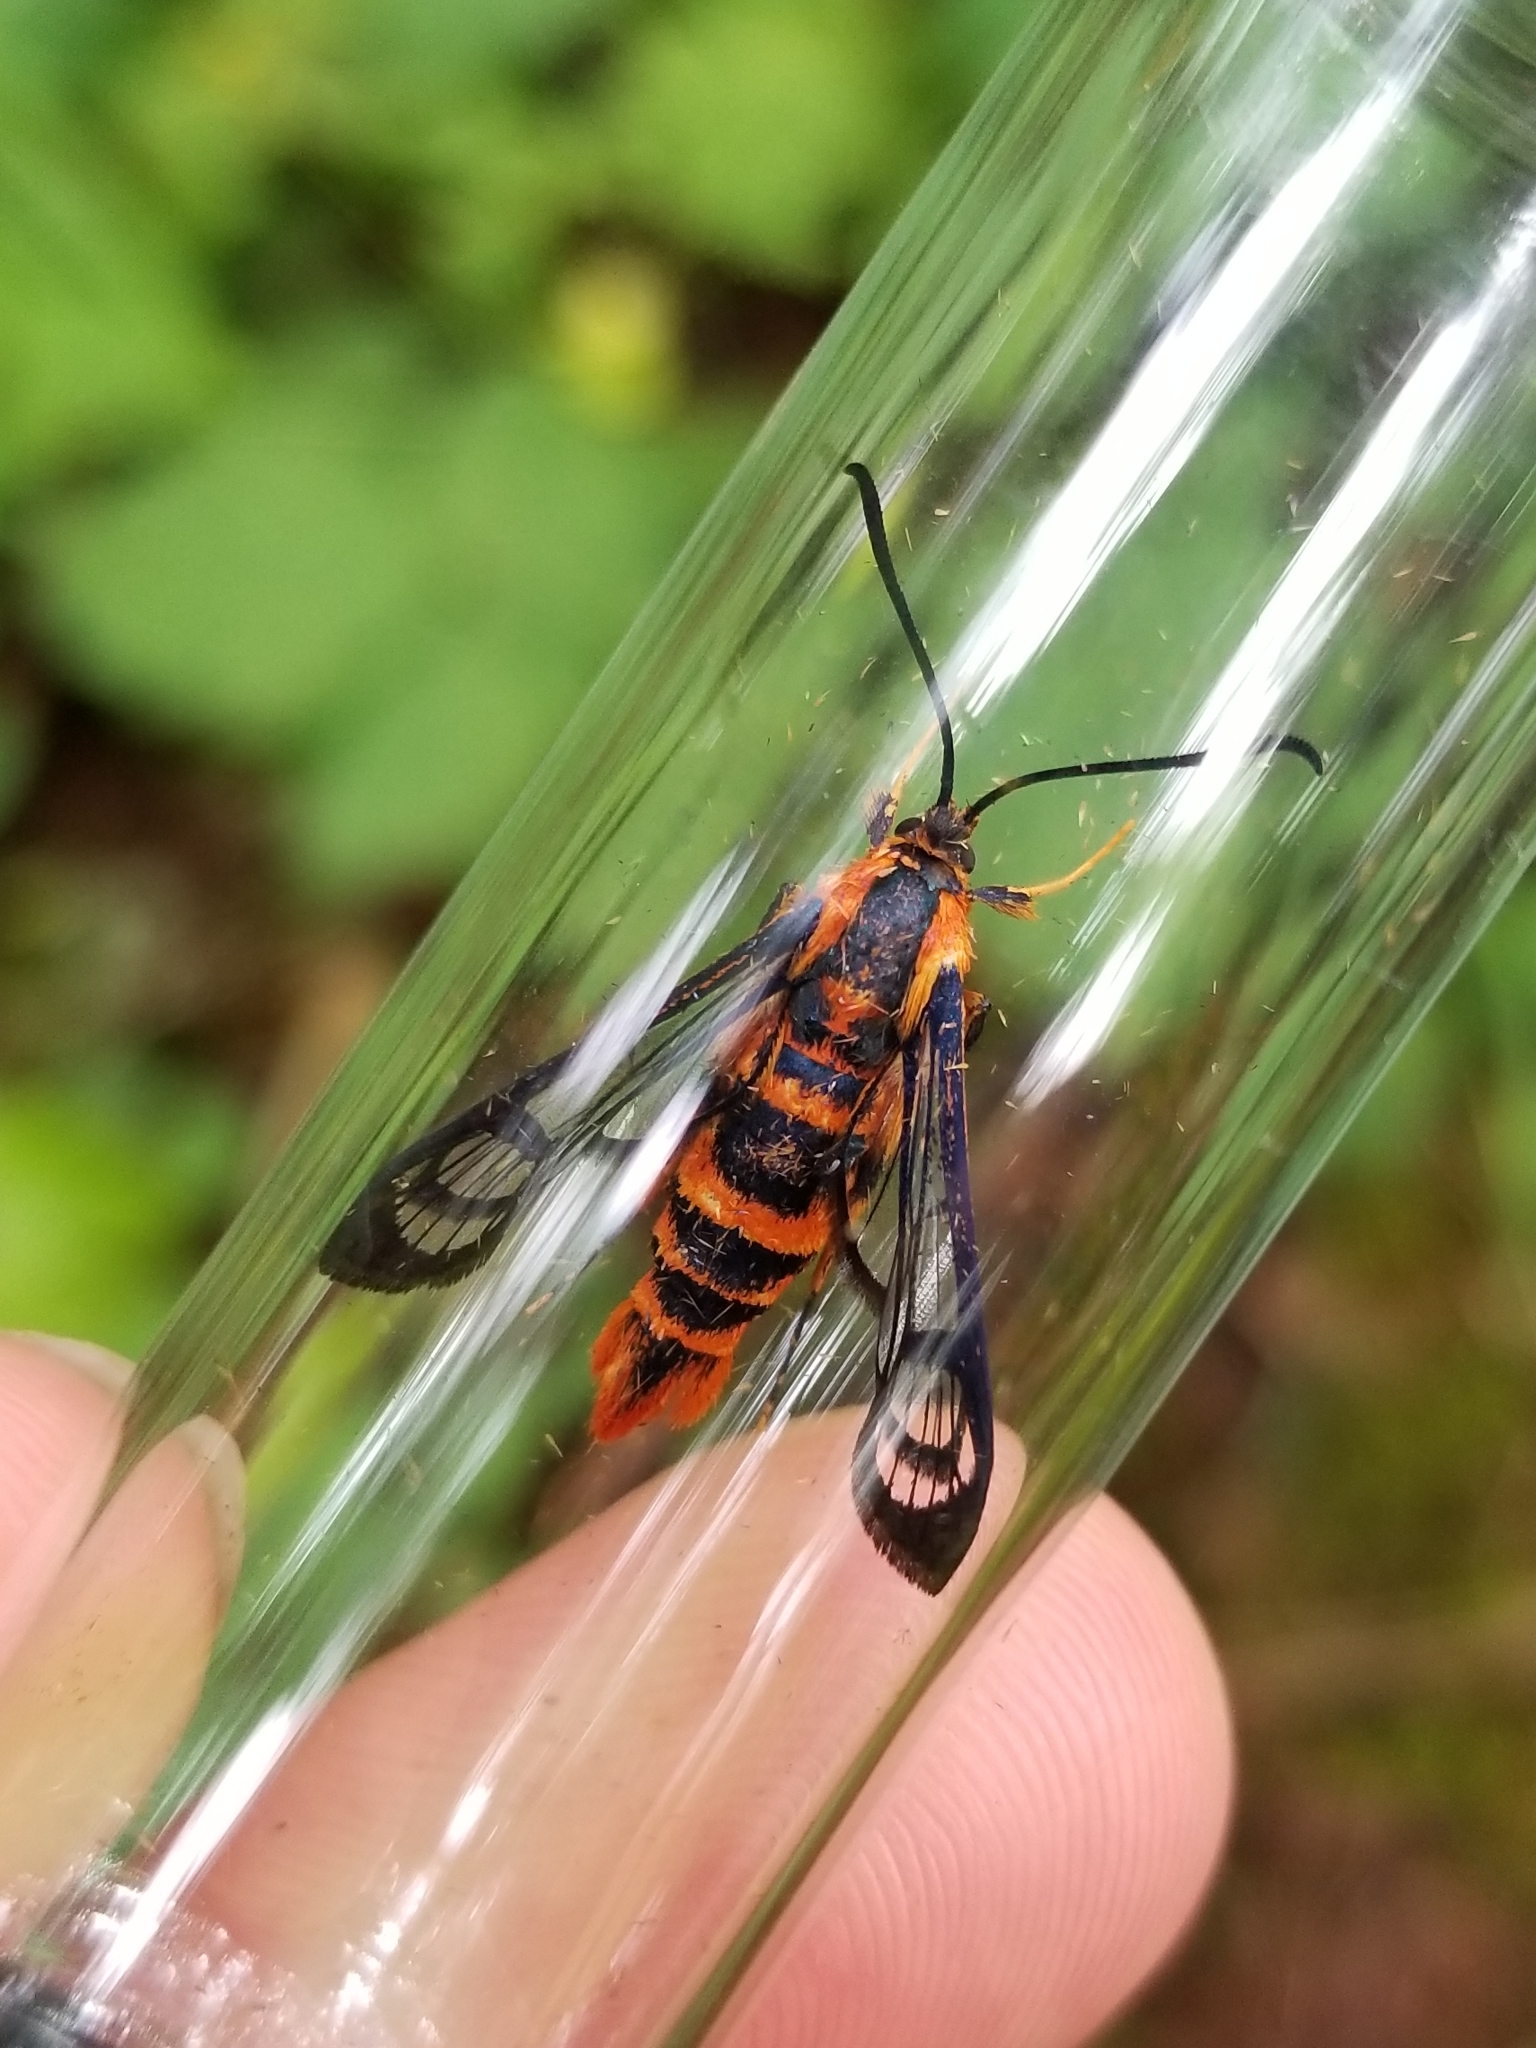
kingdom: Animalia
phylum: Arthropoda
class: Insecta
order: Lepidoptera
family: Sesiidae
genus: Synanthedon
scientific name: Synanthedon novaroensis
